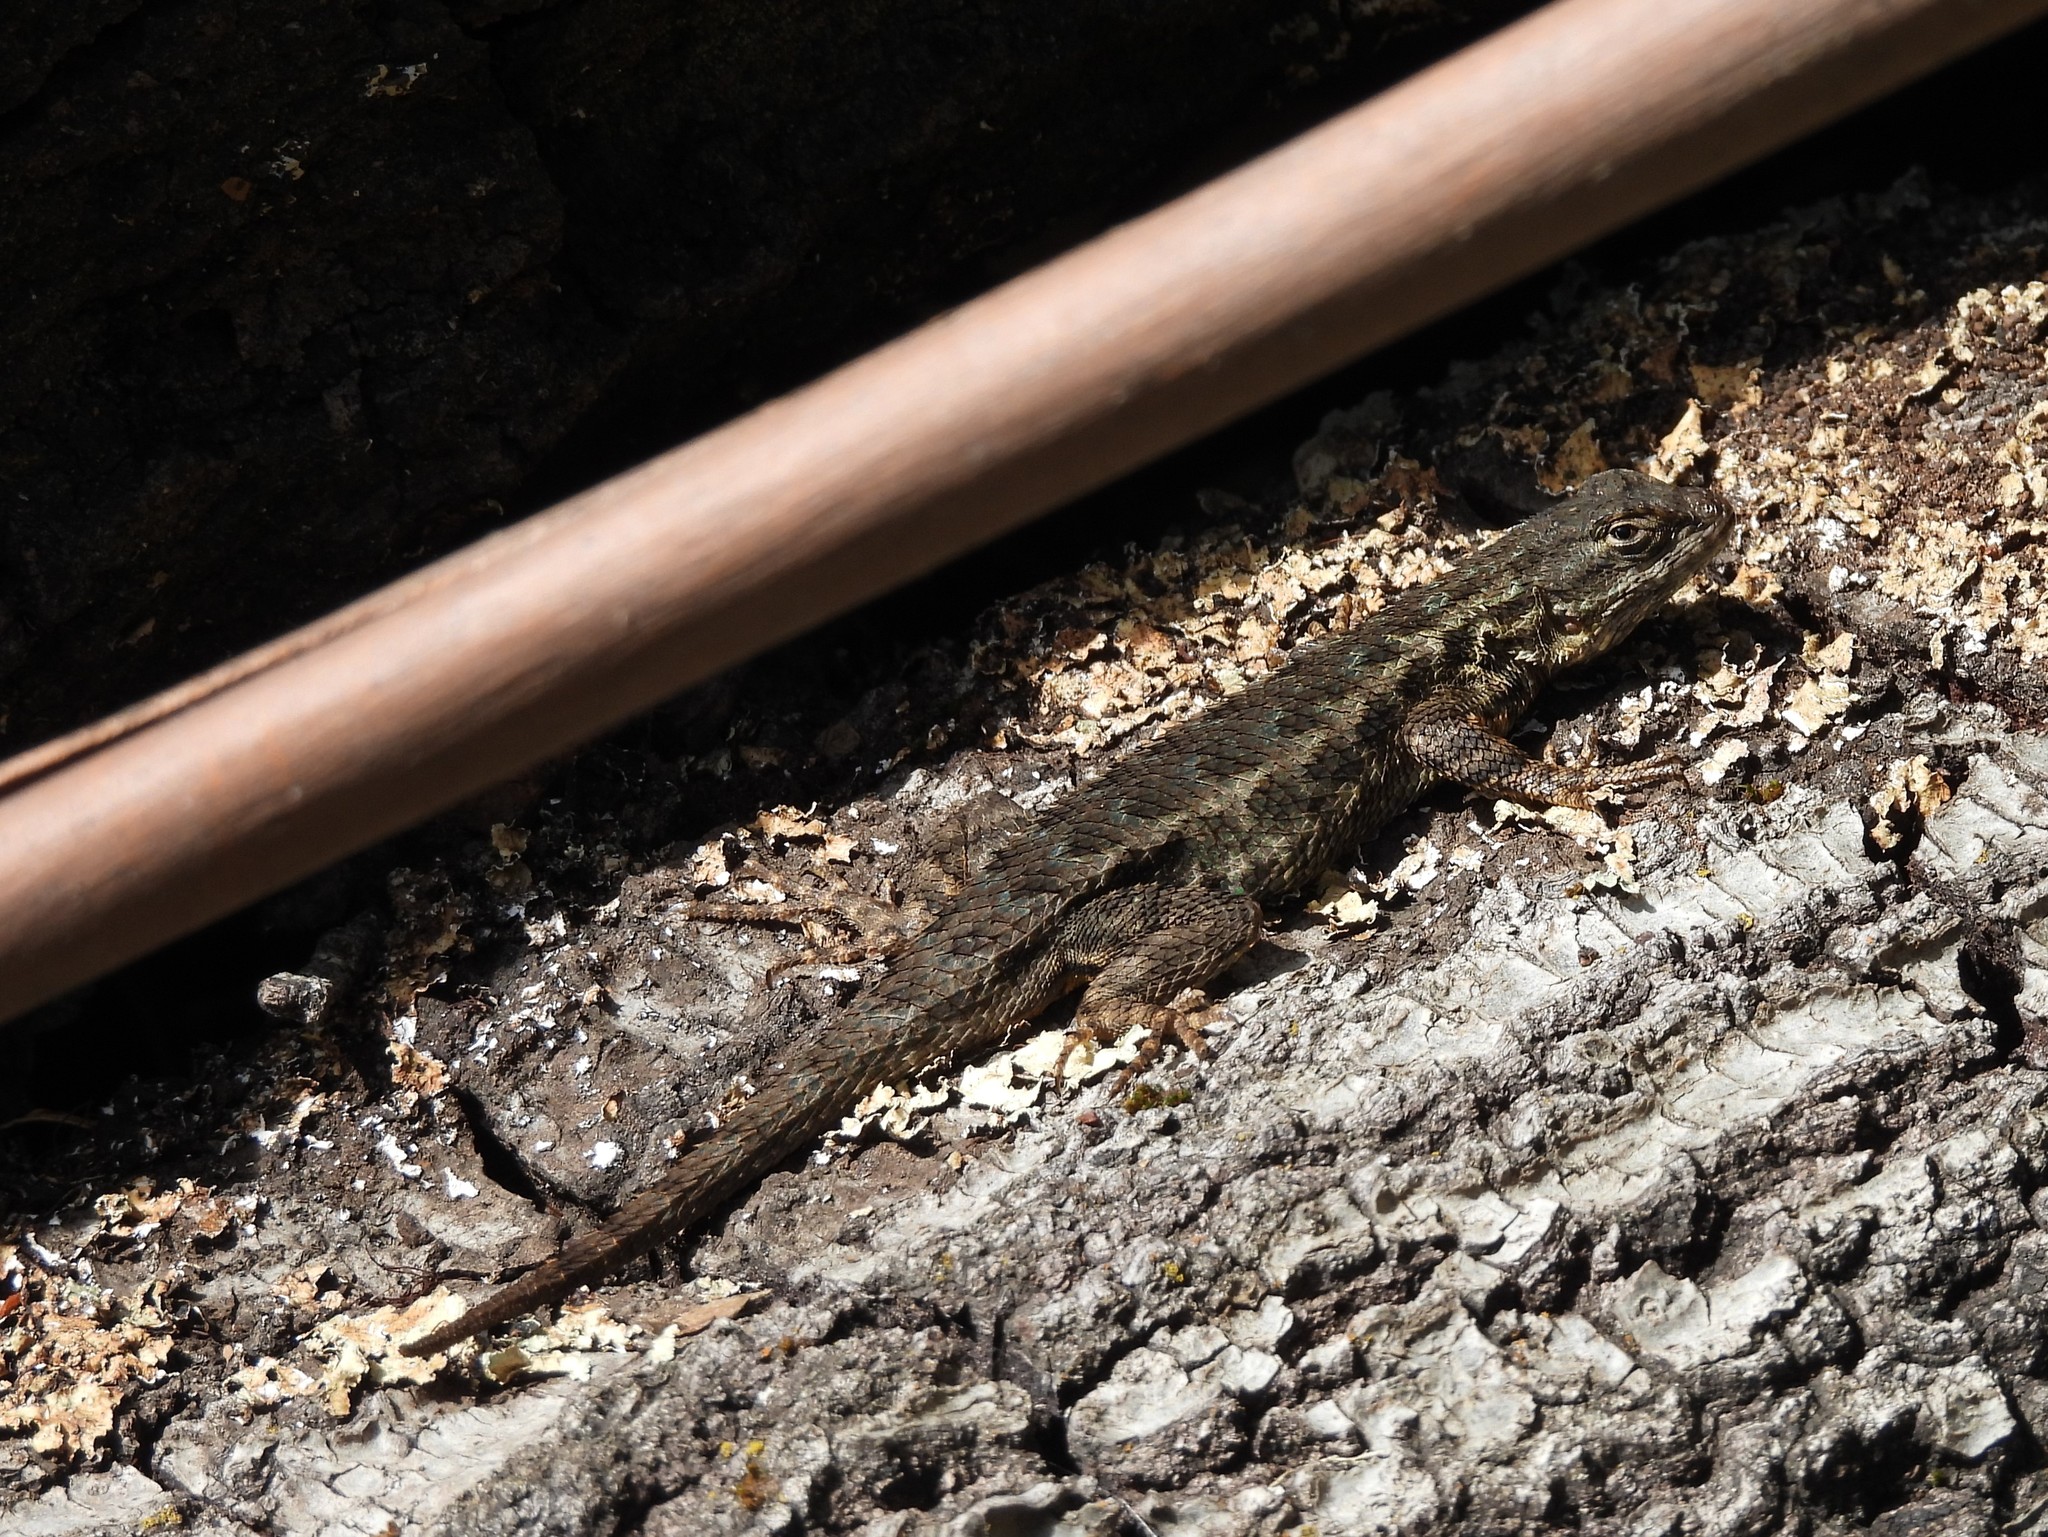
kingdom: Animalia
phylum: Chordata
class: Squamata
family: Phrynosomatidae
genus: Sceloporus
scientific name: Sceloporus occidentalis
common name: Western fence lizard
